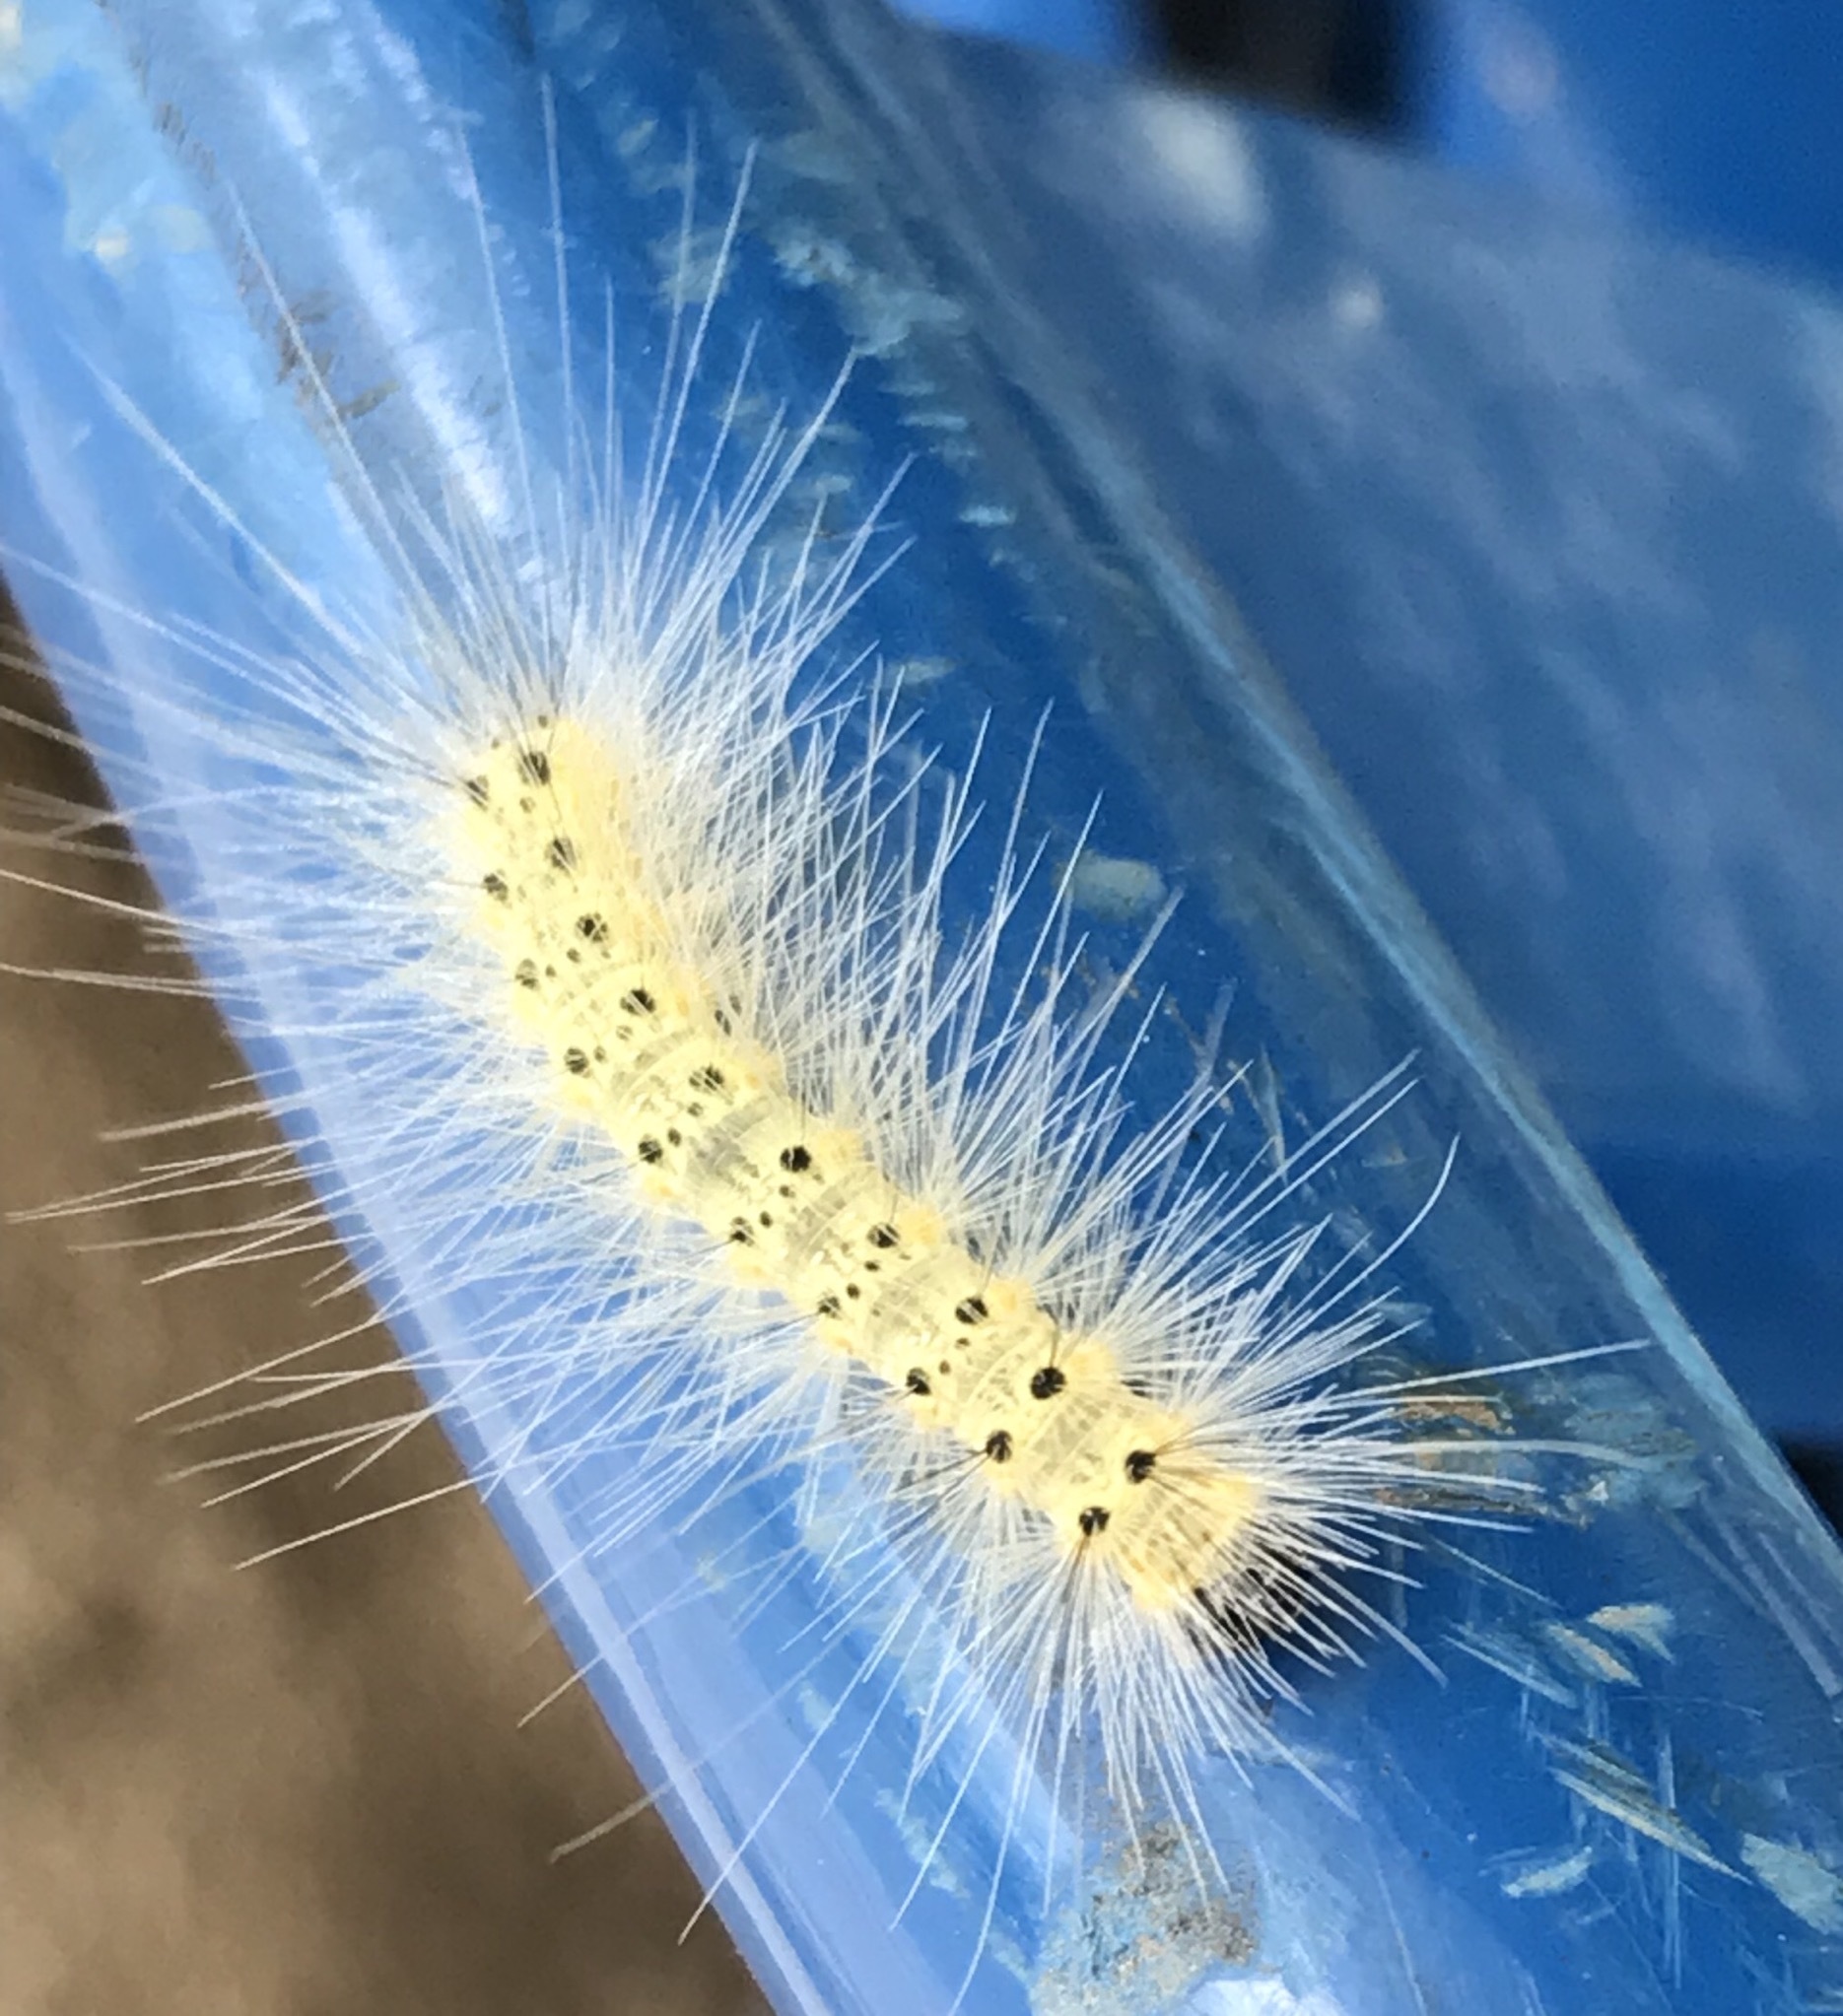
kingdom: Animalia
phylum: Arthropoda
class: Insecta
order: Lepidoptera
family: Erebidae
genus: Hyphantria
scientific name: Hyphantria cunea
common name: American white moth
